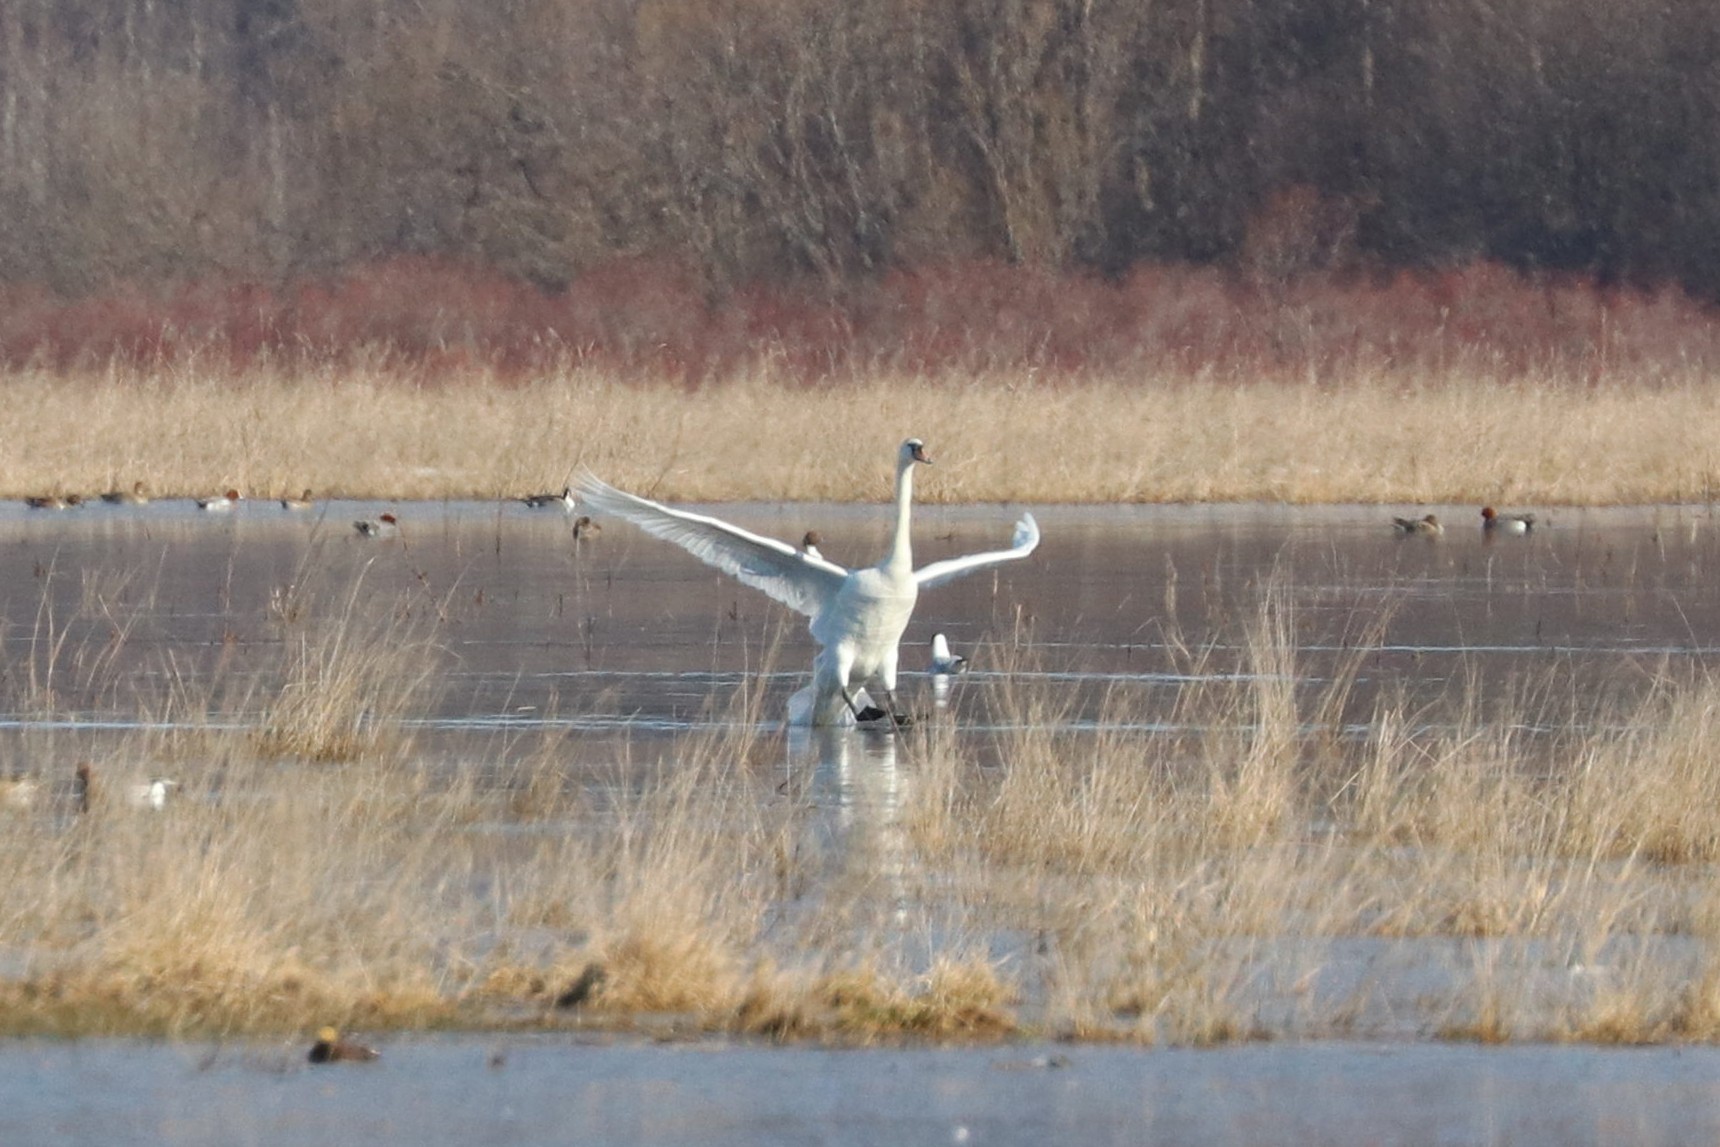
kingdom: Animalia
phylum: Chordata
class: Aves
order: Anseriformes
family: Anatidae
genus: Cygnus
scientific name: Cygnus olor
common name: Mute swan
